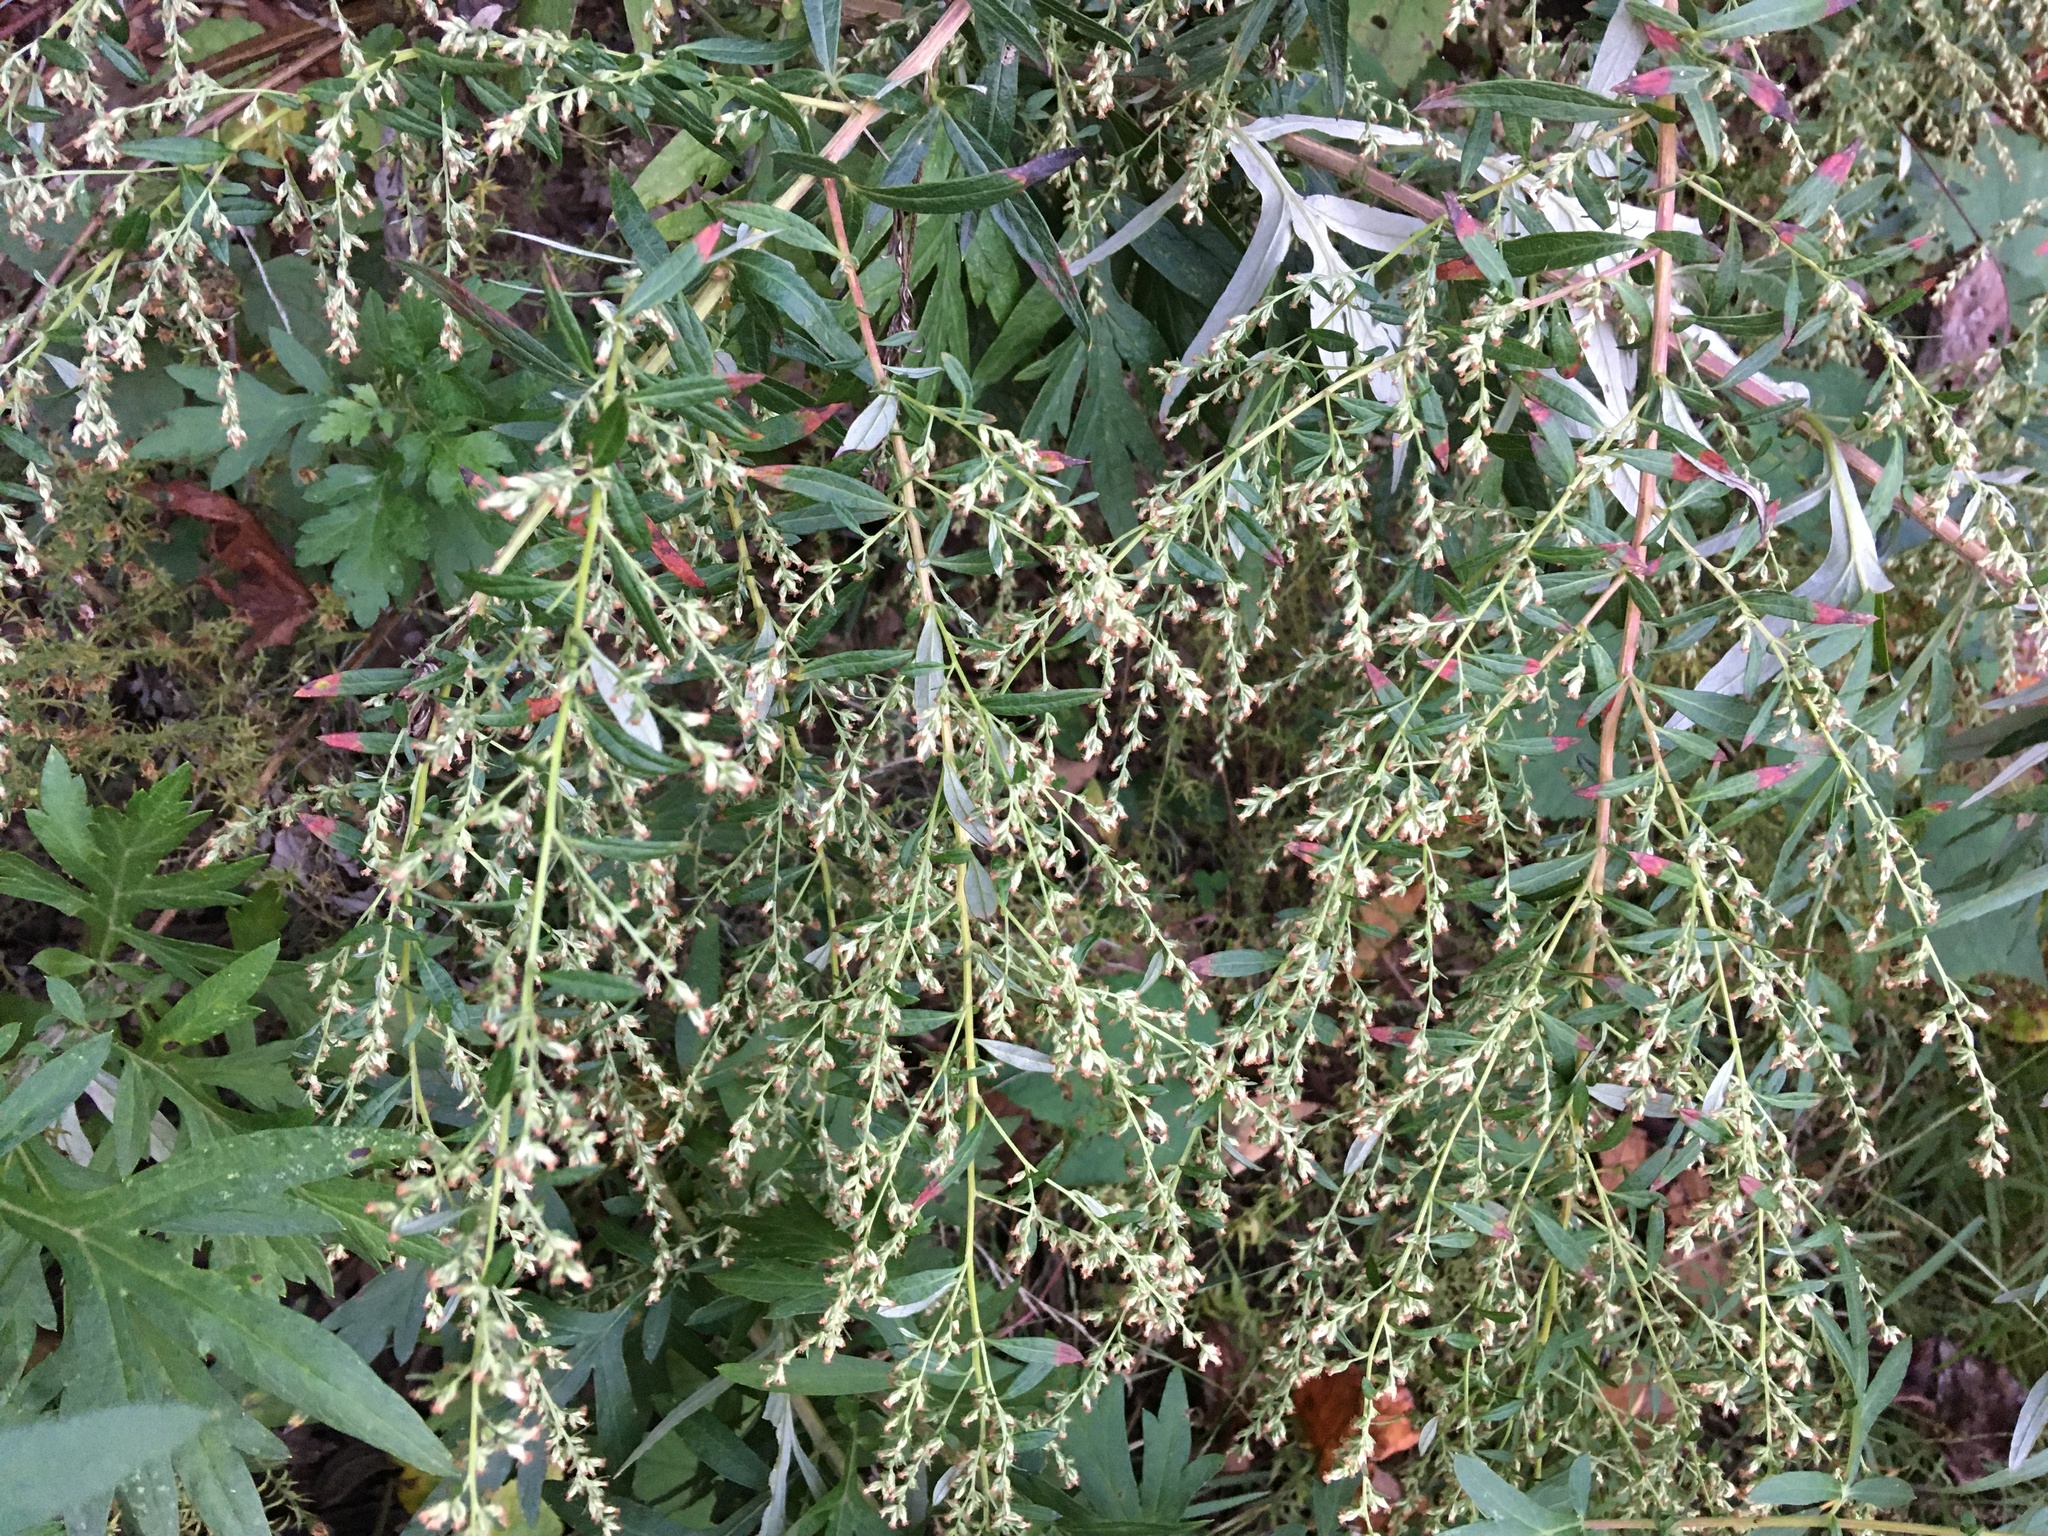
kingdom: Plantae
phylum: Tracheophyta
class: Magnoliopsida
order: Asterales
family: Asteraceae
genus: Artemisia
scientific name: Artemisia vulgaris
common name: Mugwort
